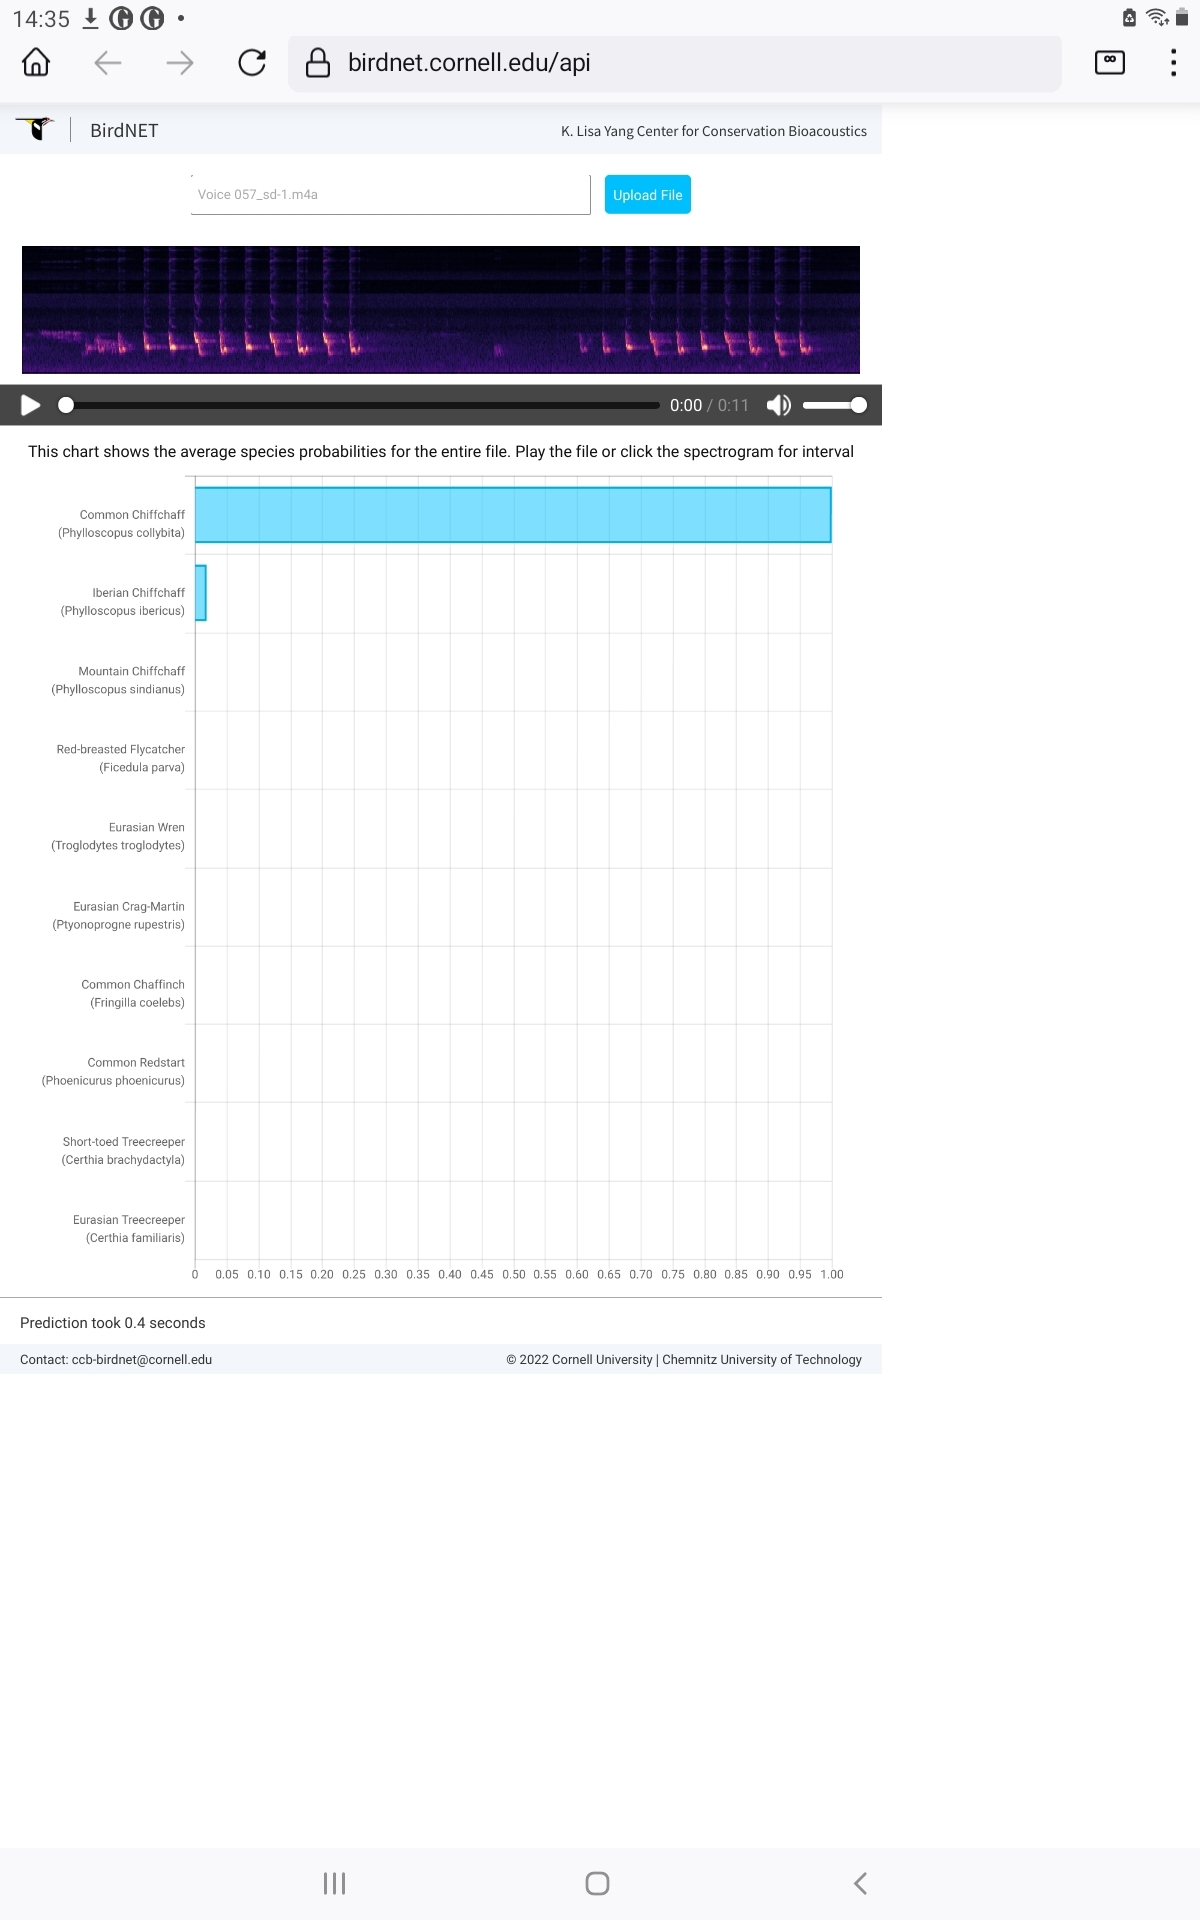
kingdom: Animalia
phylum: Chordata
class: Aves
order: Passeriformes
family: Phylloscopidae
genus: Phylloscopus
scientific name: Phylloscopus collybita
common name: Common chiffchaff
